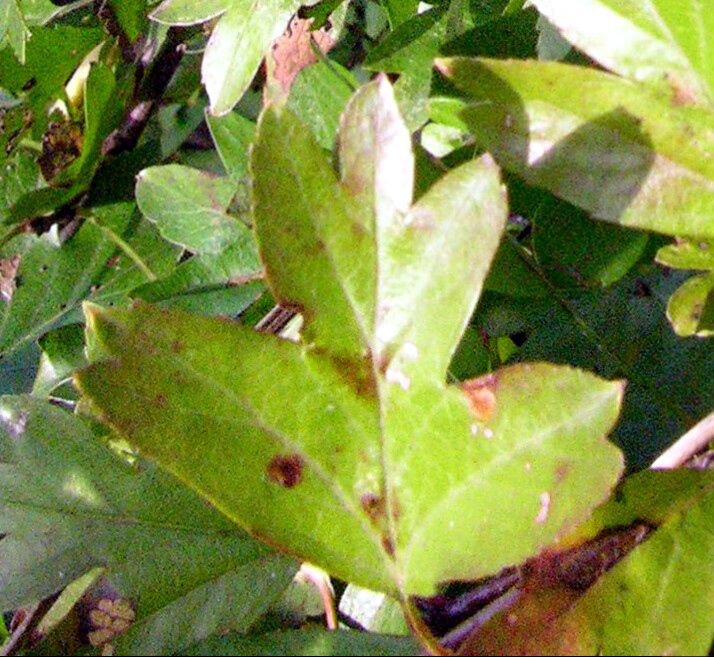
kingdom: Plantae
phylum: Tracheophyta
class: Magnoliopsida
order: Rosales
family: Rosaceae
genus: Crataegus
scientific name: Crataegus monogyna
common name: Hawthorn
